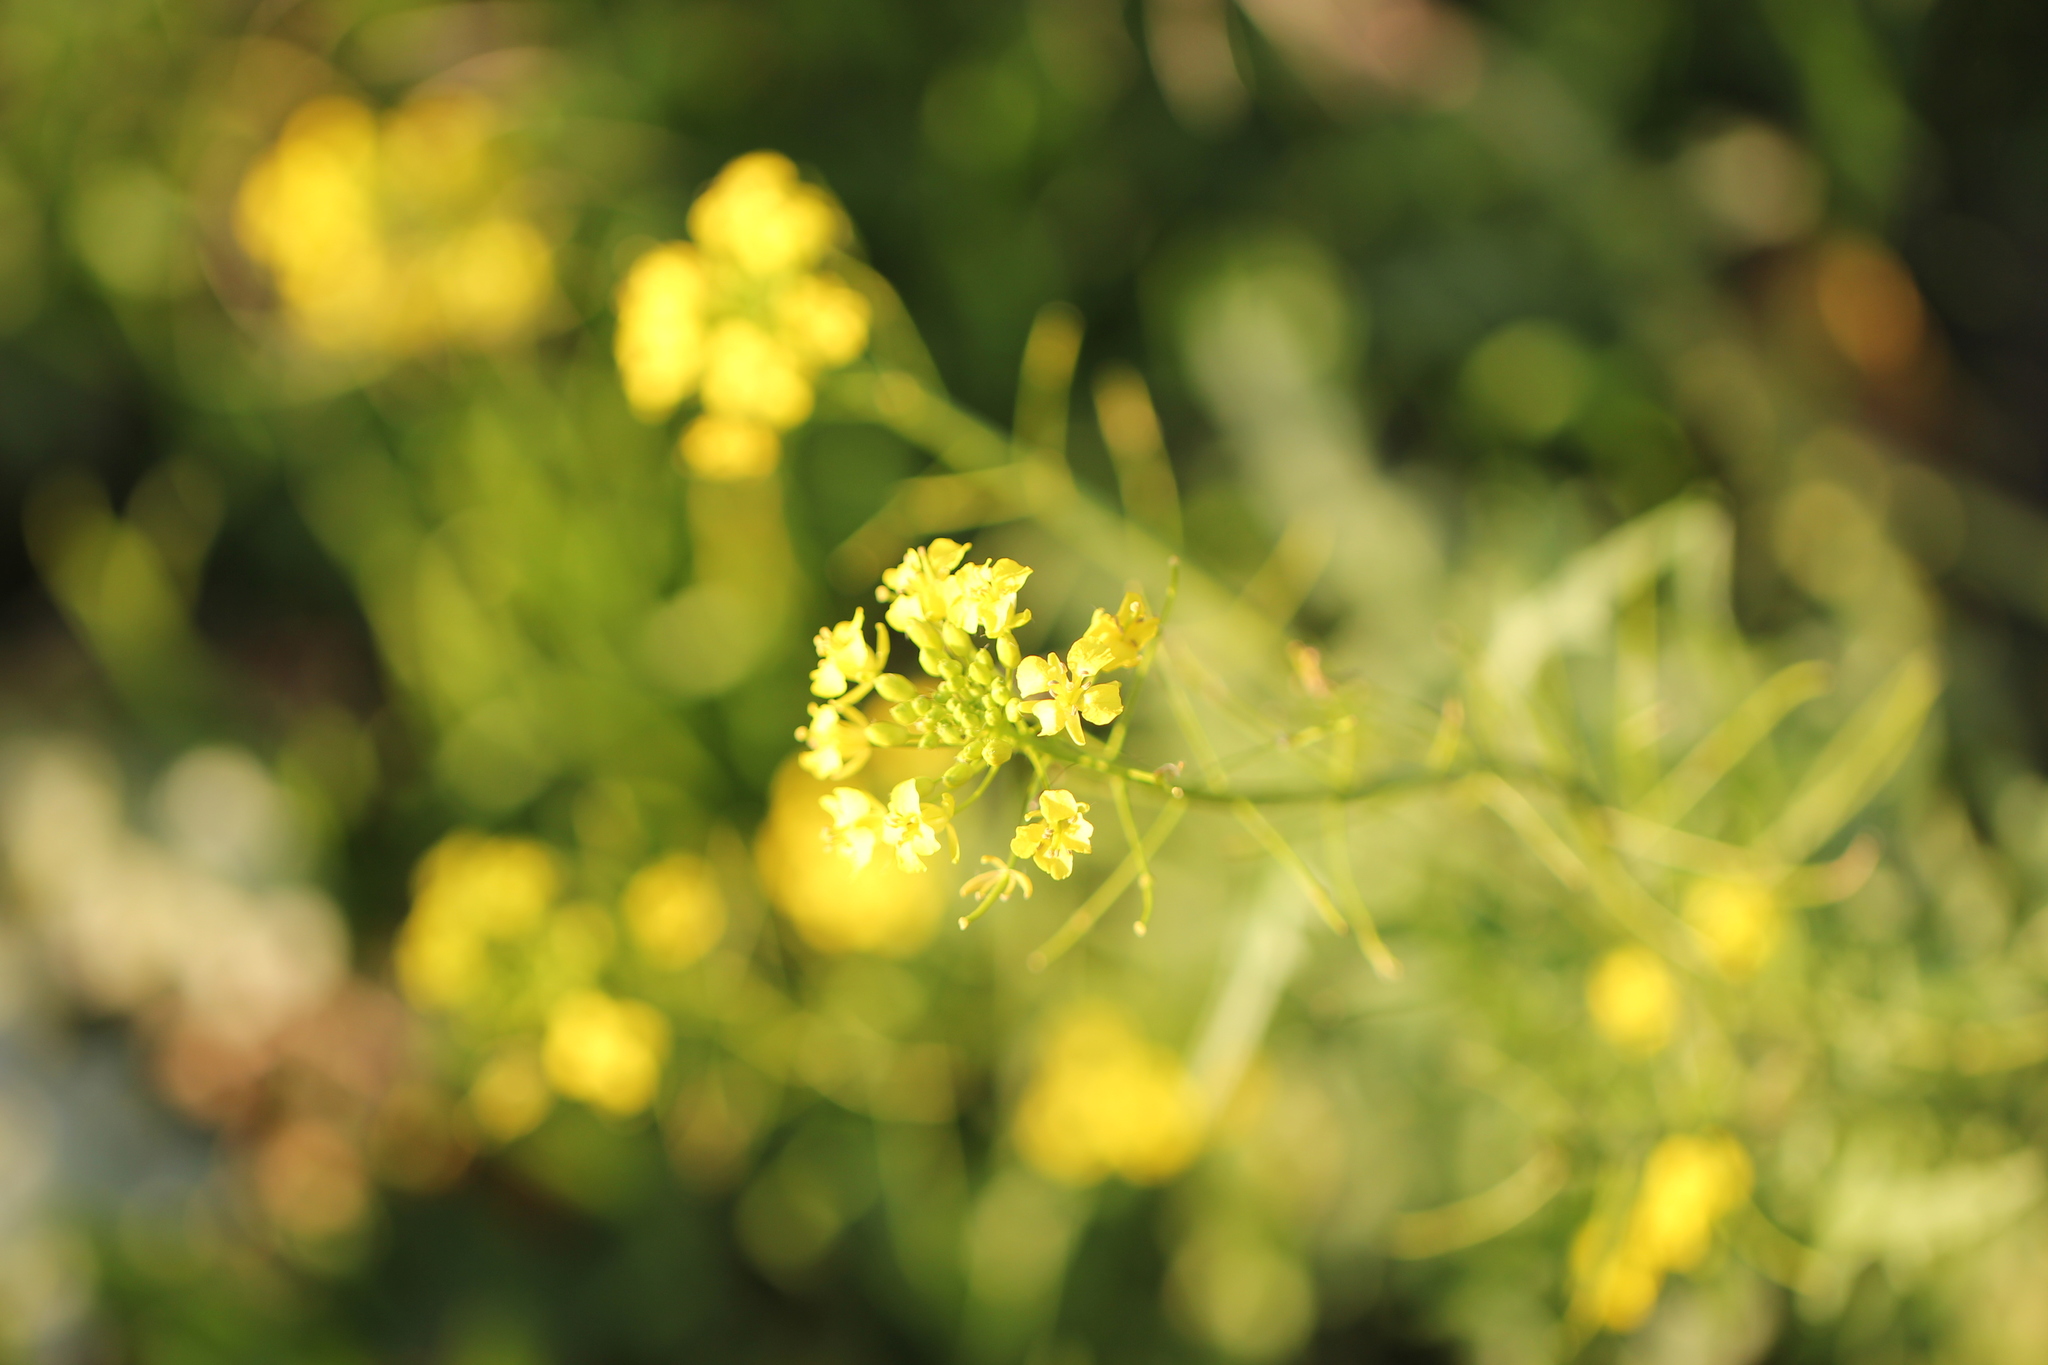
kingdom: Plantae
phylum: Tracheophyta
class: Magnoliopsida
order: Brassicales
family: Brassicaceae
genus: Sisymbrium
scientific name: Sisymbrium loeselii
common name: False london-rocket
